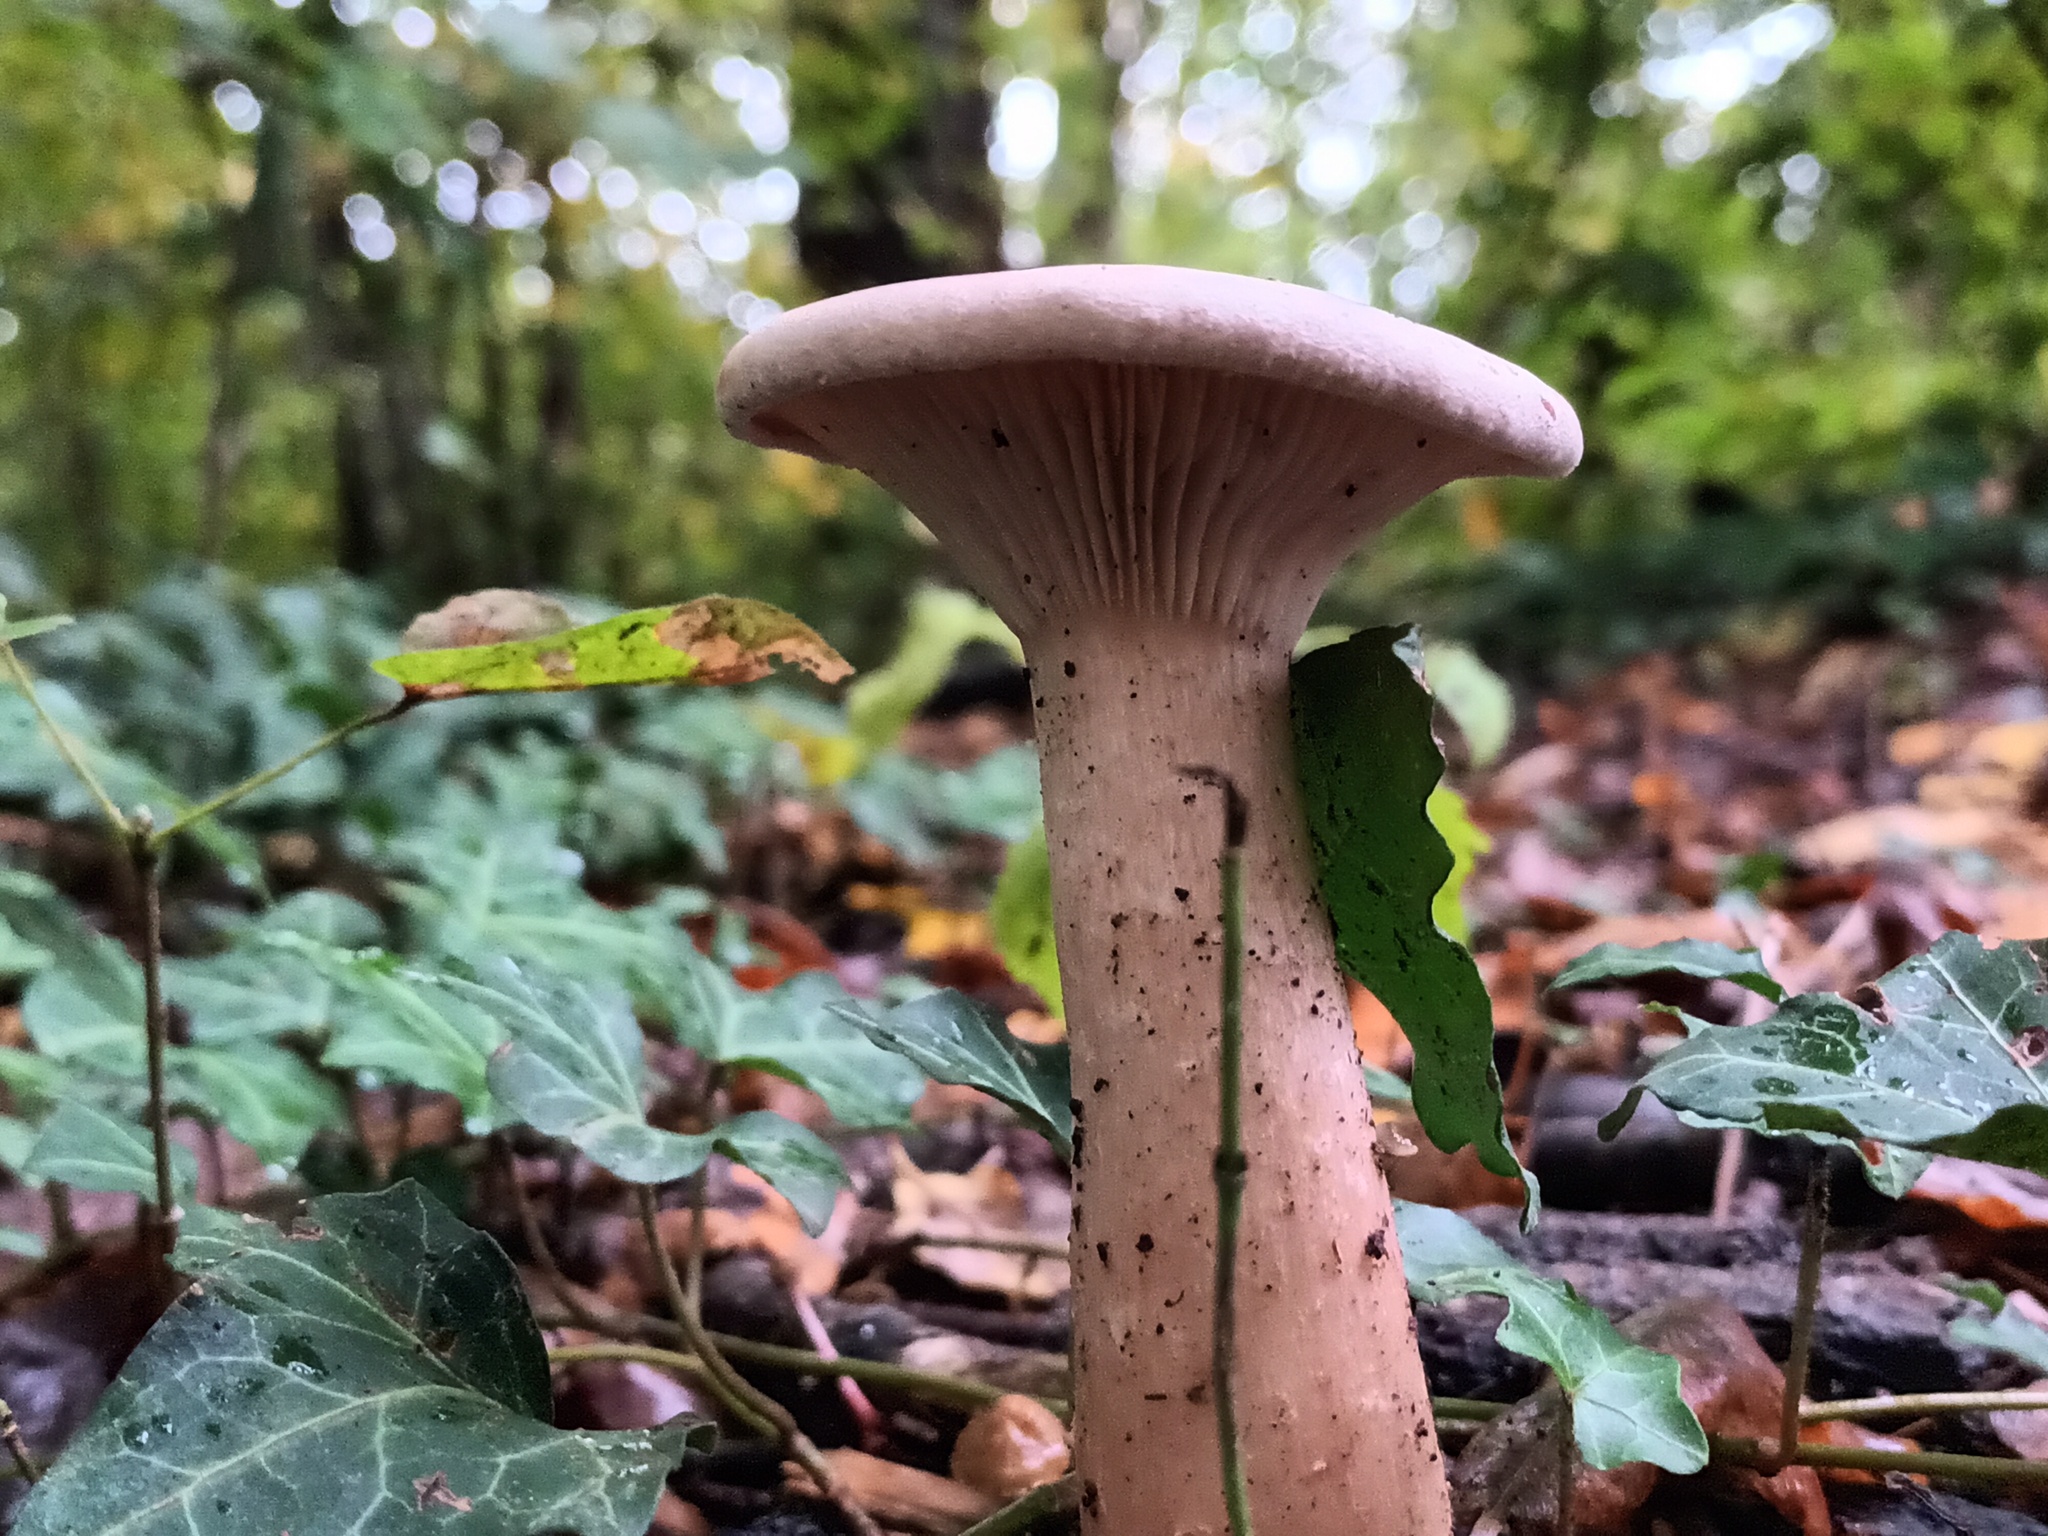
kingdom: Fungi
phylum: Basidiomycota
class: Agaricomycetes
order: Agaricales
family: Tricholomataceae
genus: Infundibulicybe
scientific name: Infundibulicybe geotropa
